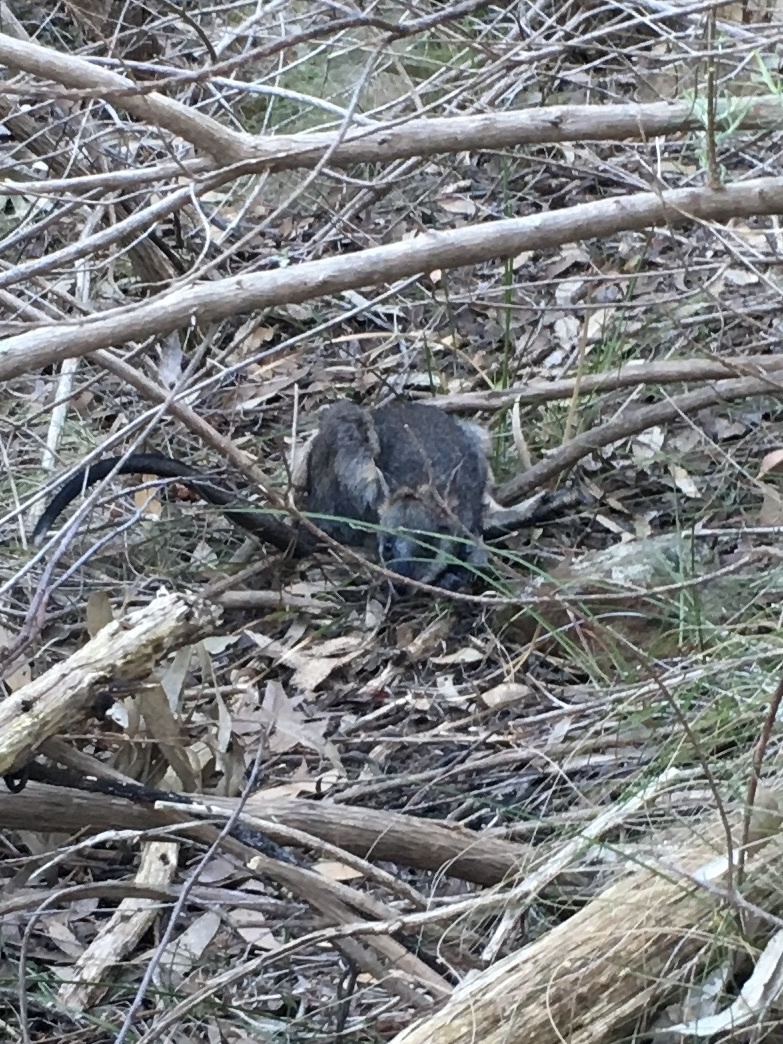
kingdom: Animalia
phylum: Chordata
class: Mammalia
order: Diprotodontia
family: Macropodidae
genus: Wallabia
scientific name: Wallabia bicolor
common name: Swamp wallaby
